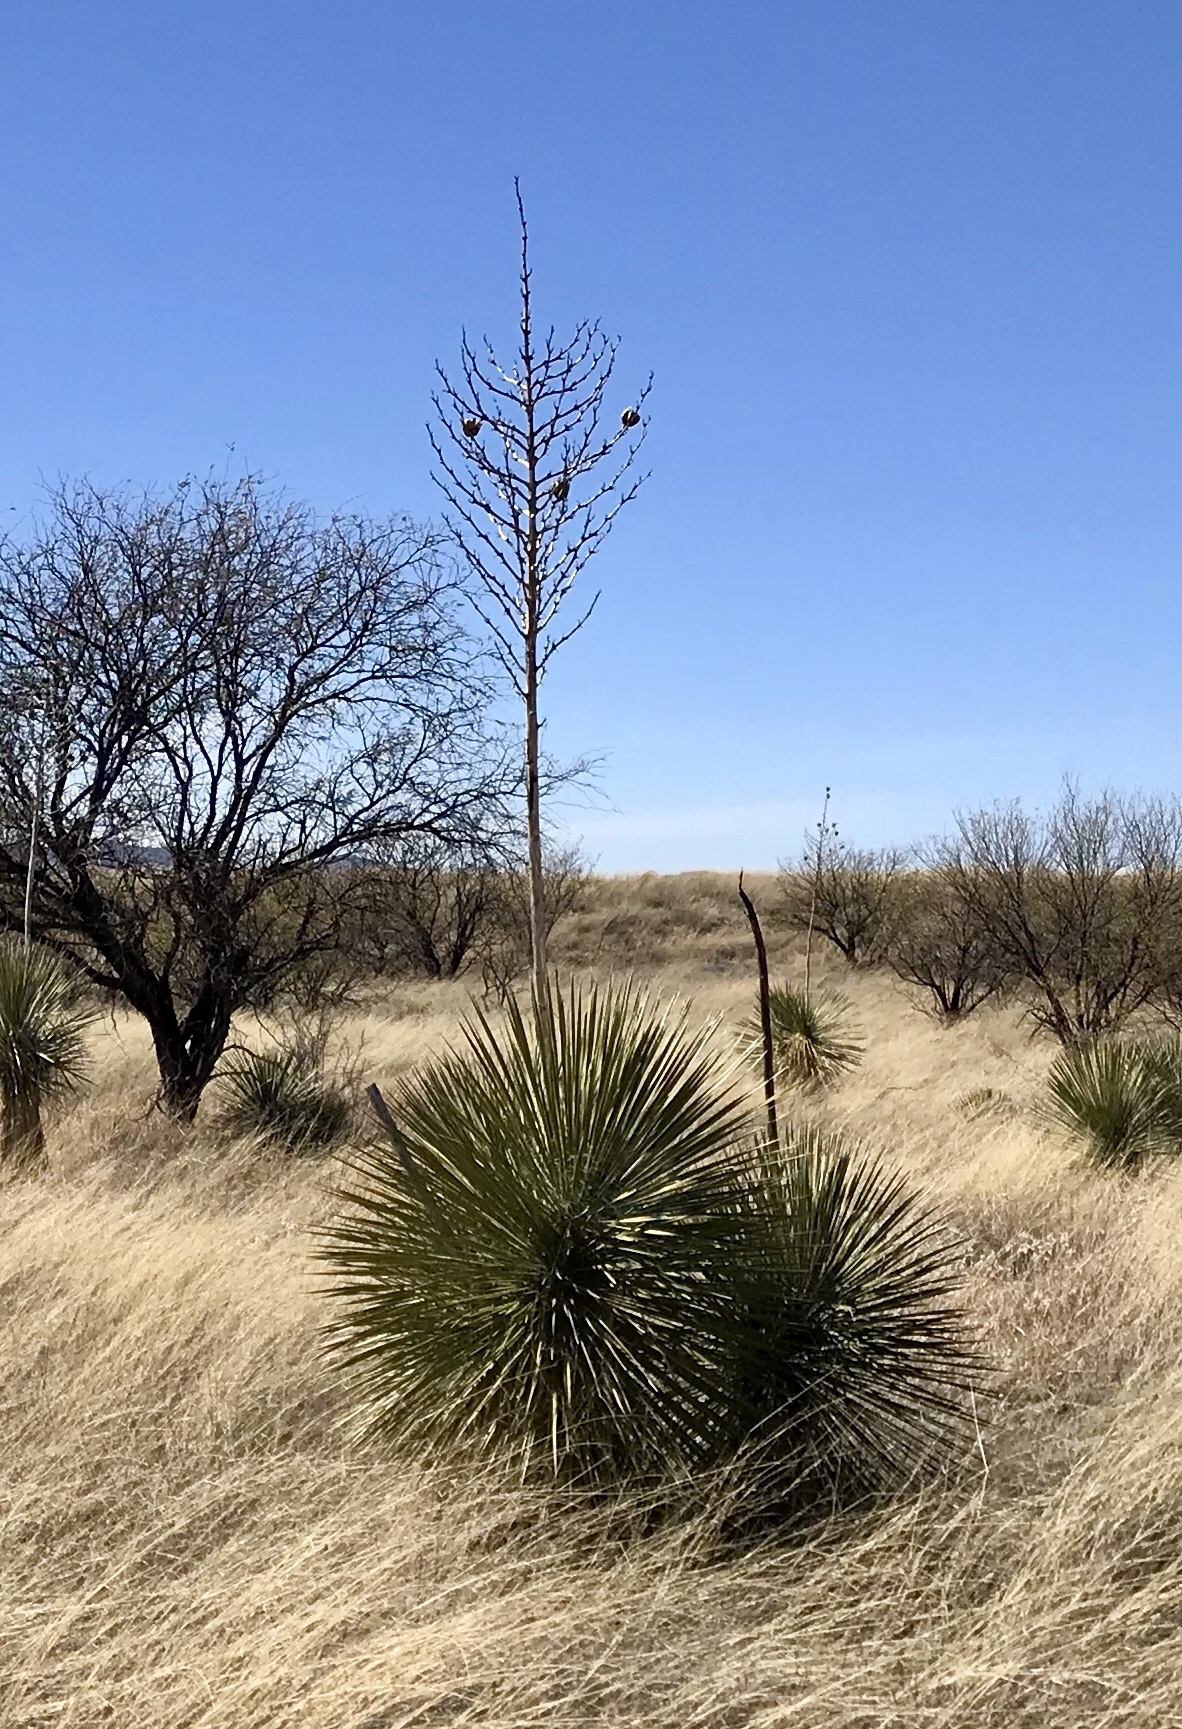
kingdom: Plantae
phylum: Tracheophyta
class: Liliopsida
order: Asparagales
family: Asparagaceae
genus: Yucca
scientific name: Yucca elata
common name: Palmella
